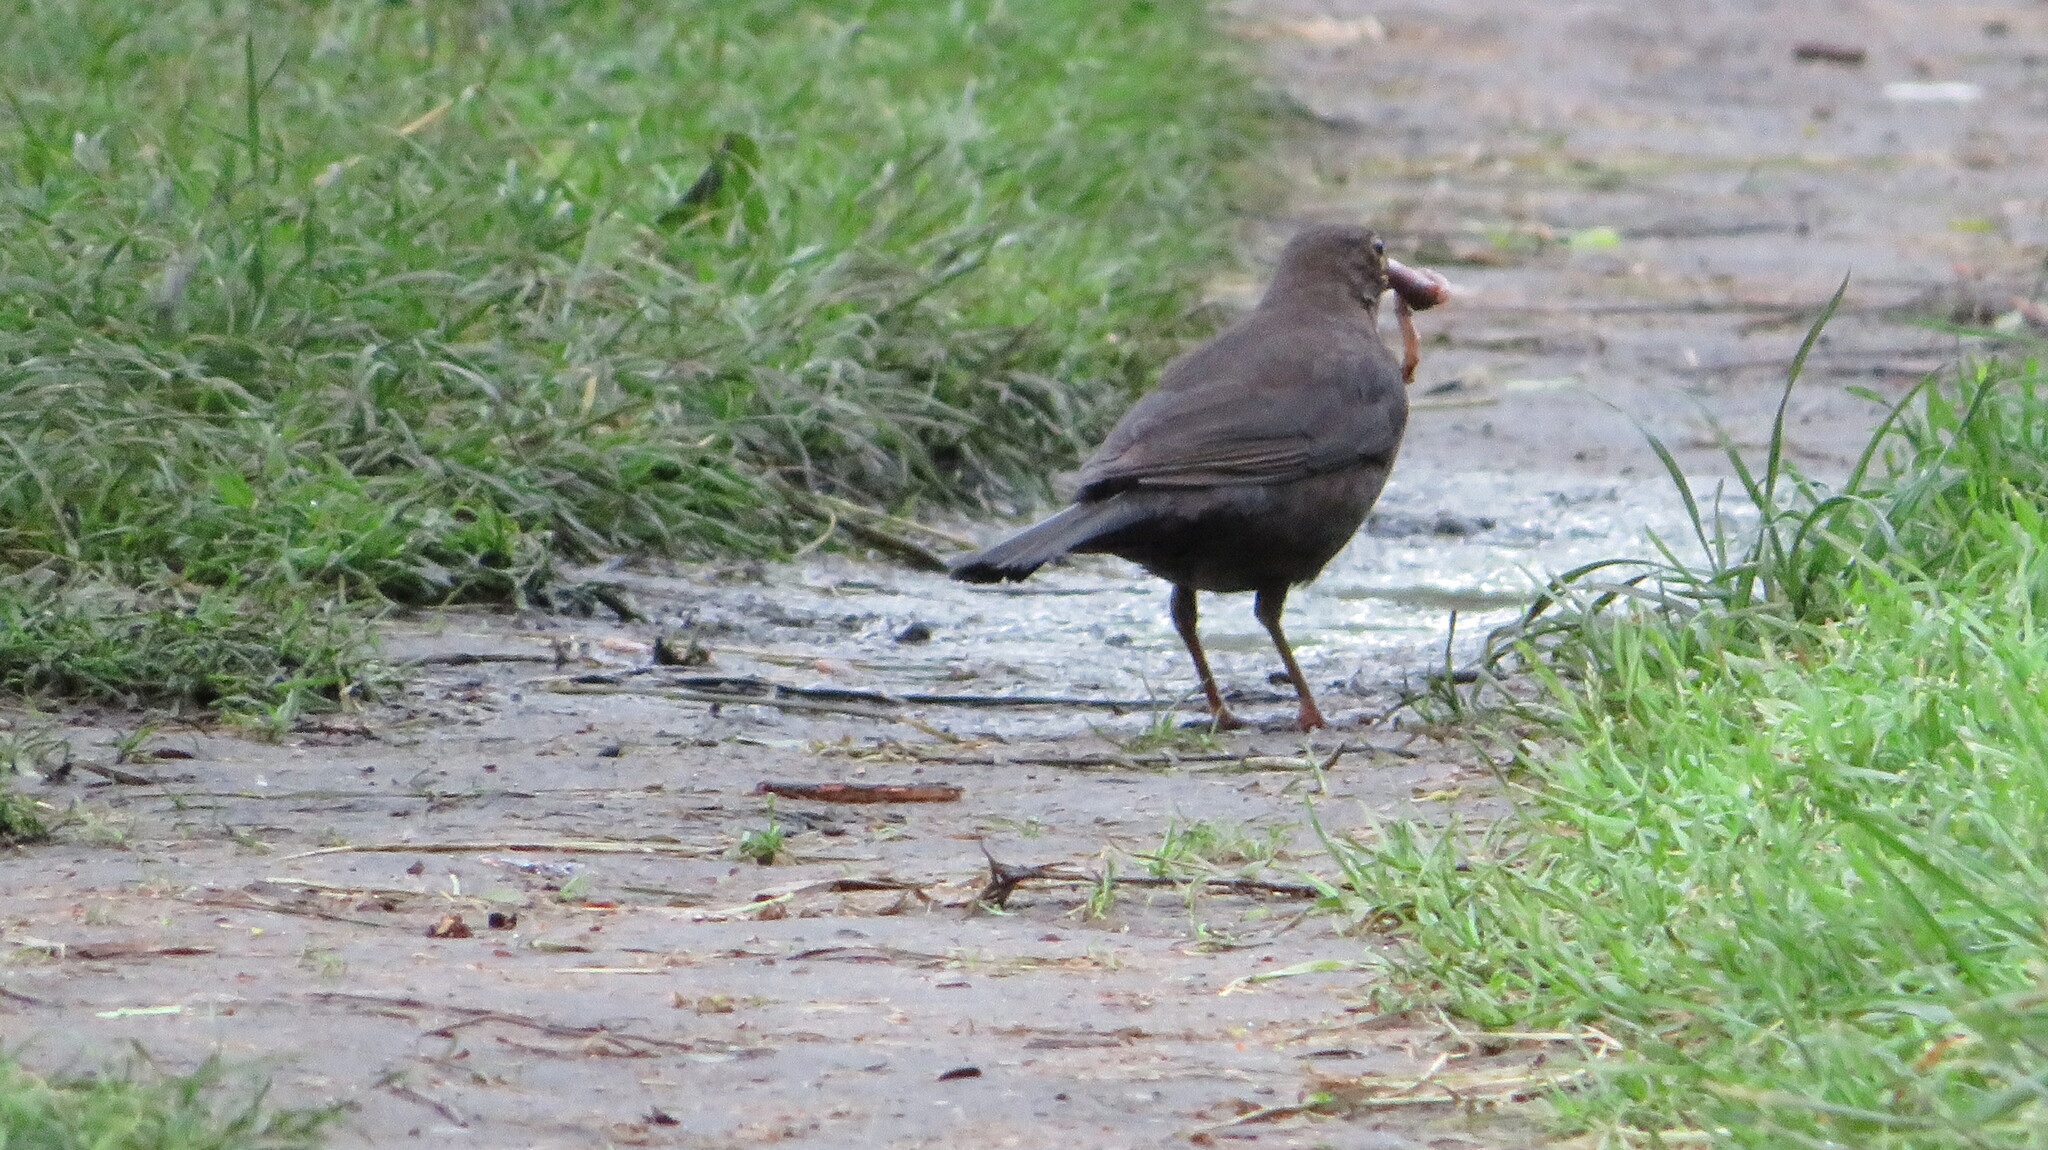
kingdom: Animalia
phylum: Chordata
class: Aves
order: Passeriformes
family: Turdidae
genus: Turdus
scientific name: Turdus merula
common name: Common blackbird
